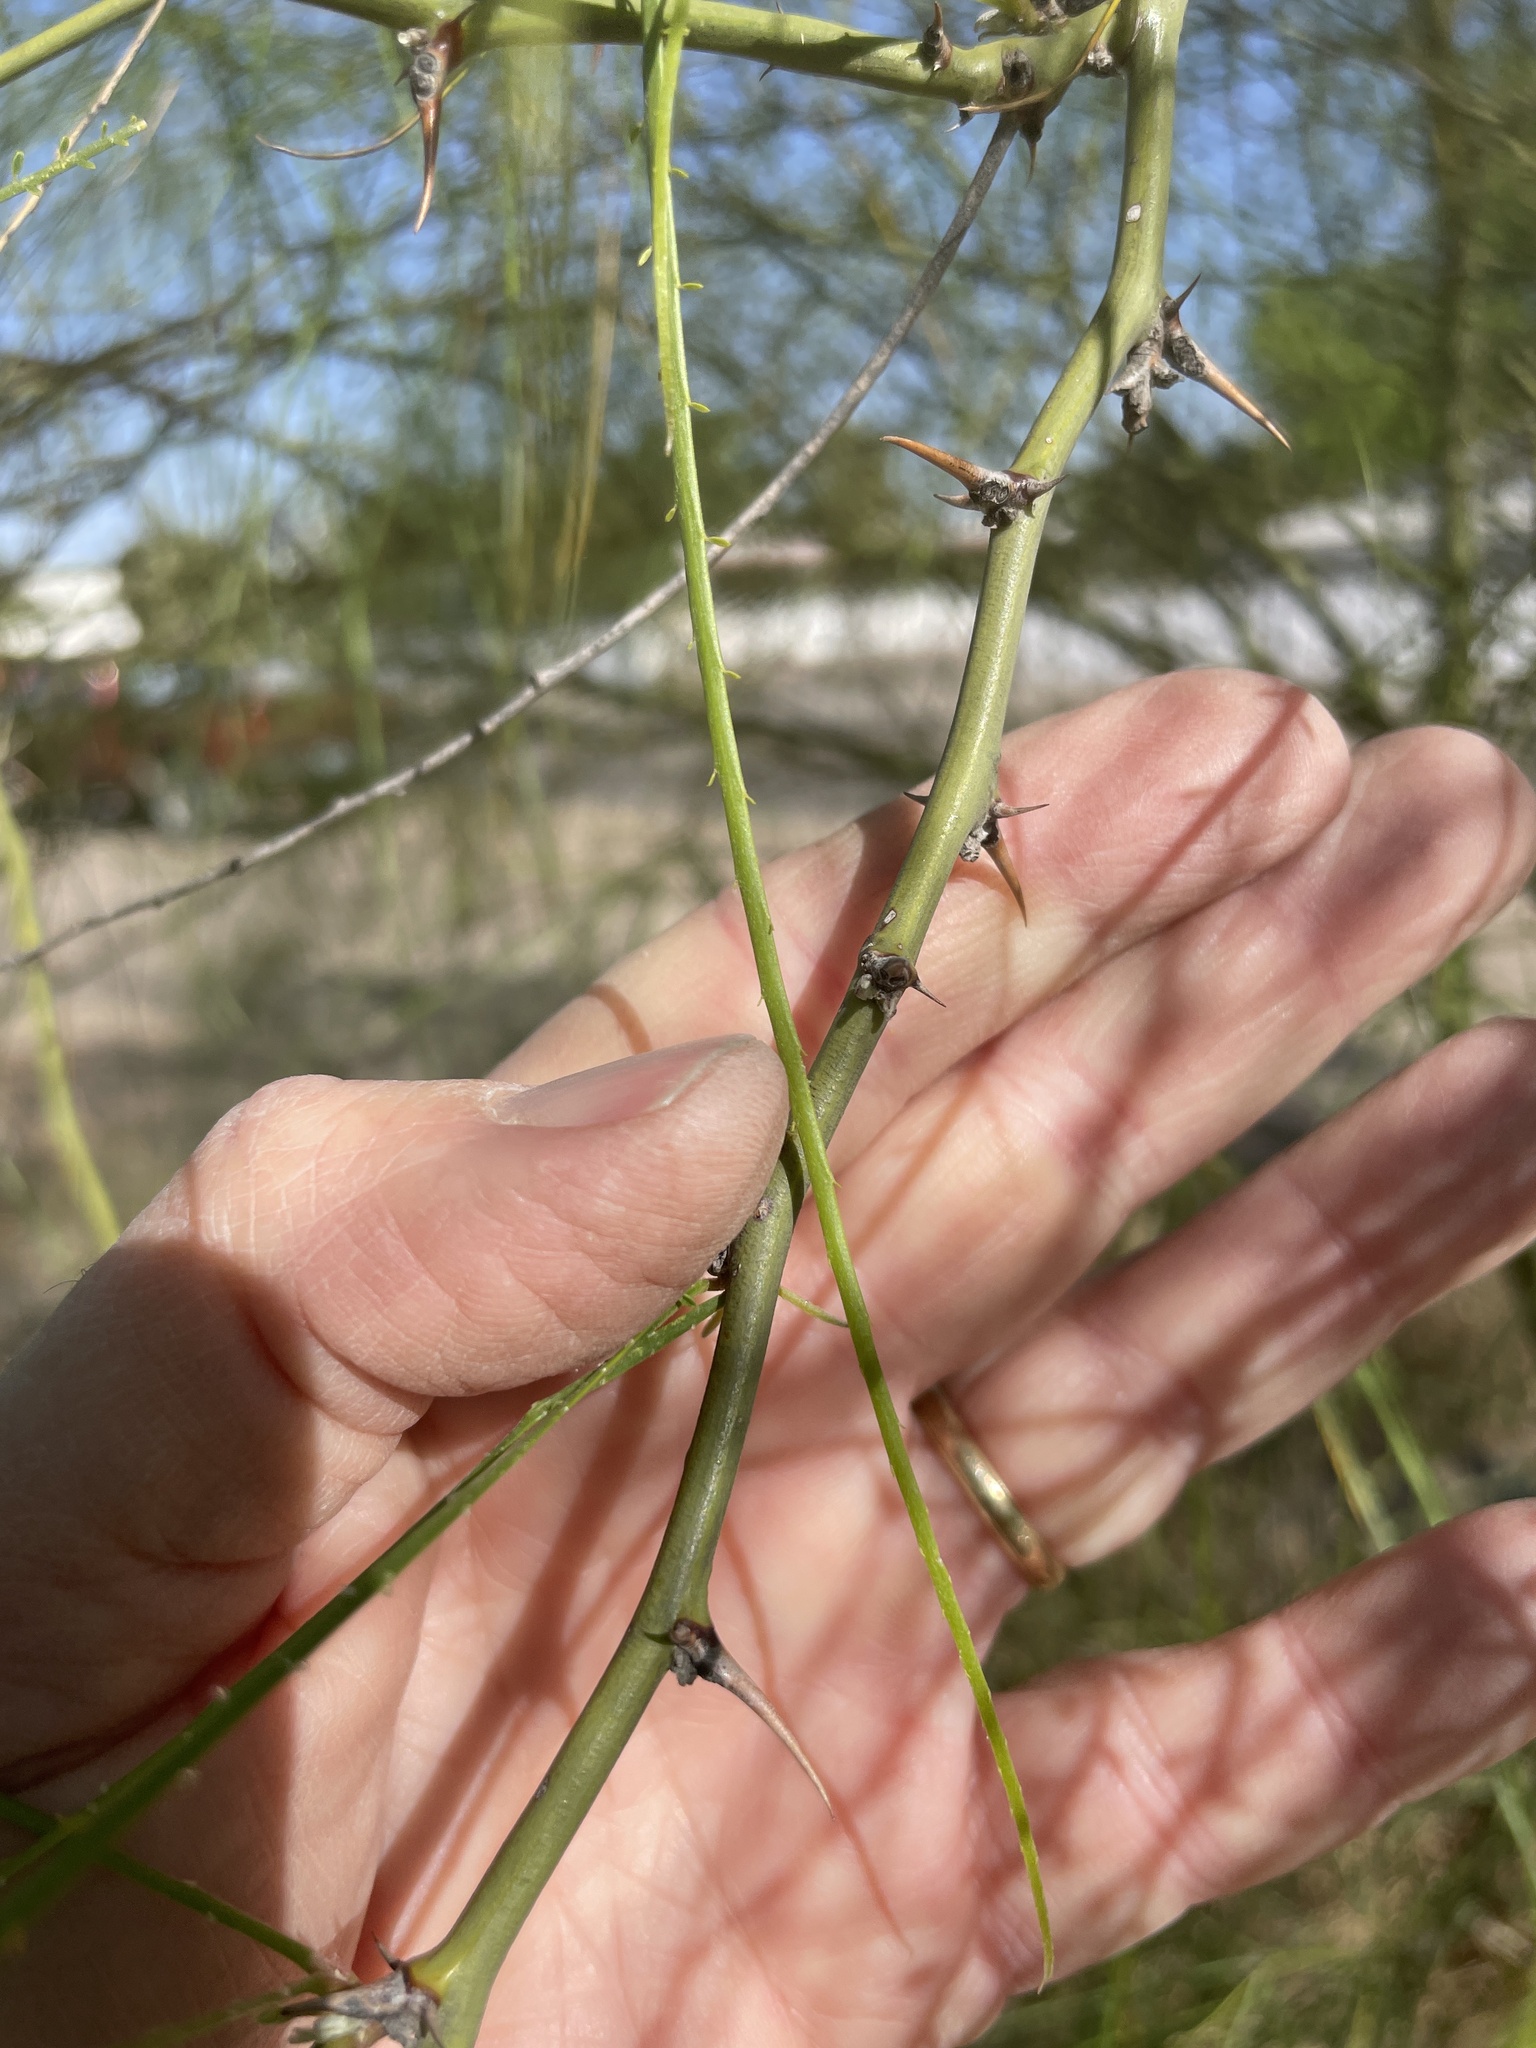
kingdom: Plantae
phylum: Tracheophyta
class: Magnoliopsida
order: Fabales
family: Fabaceae
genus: Parkinsonia
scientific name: Parkinsonia aculeata
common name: Jerusalem thorn
